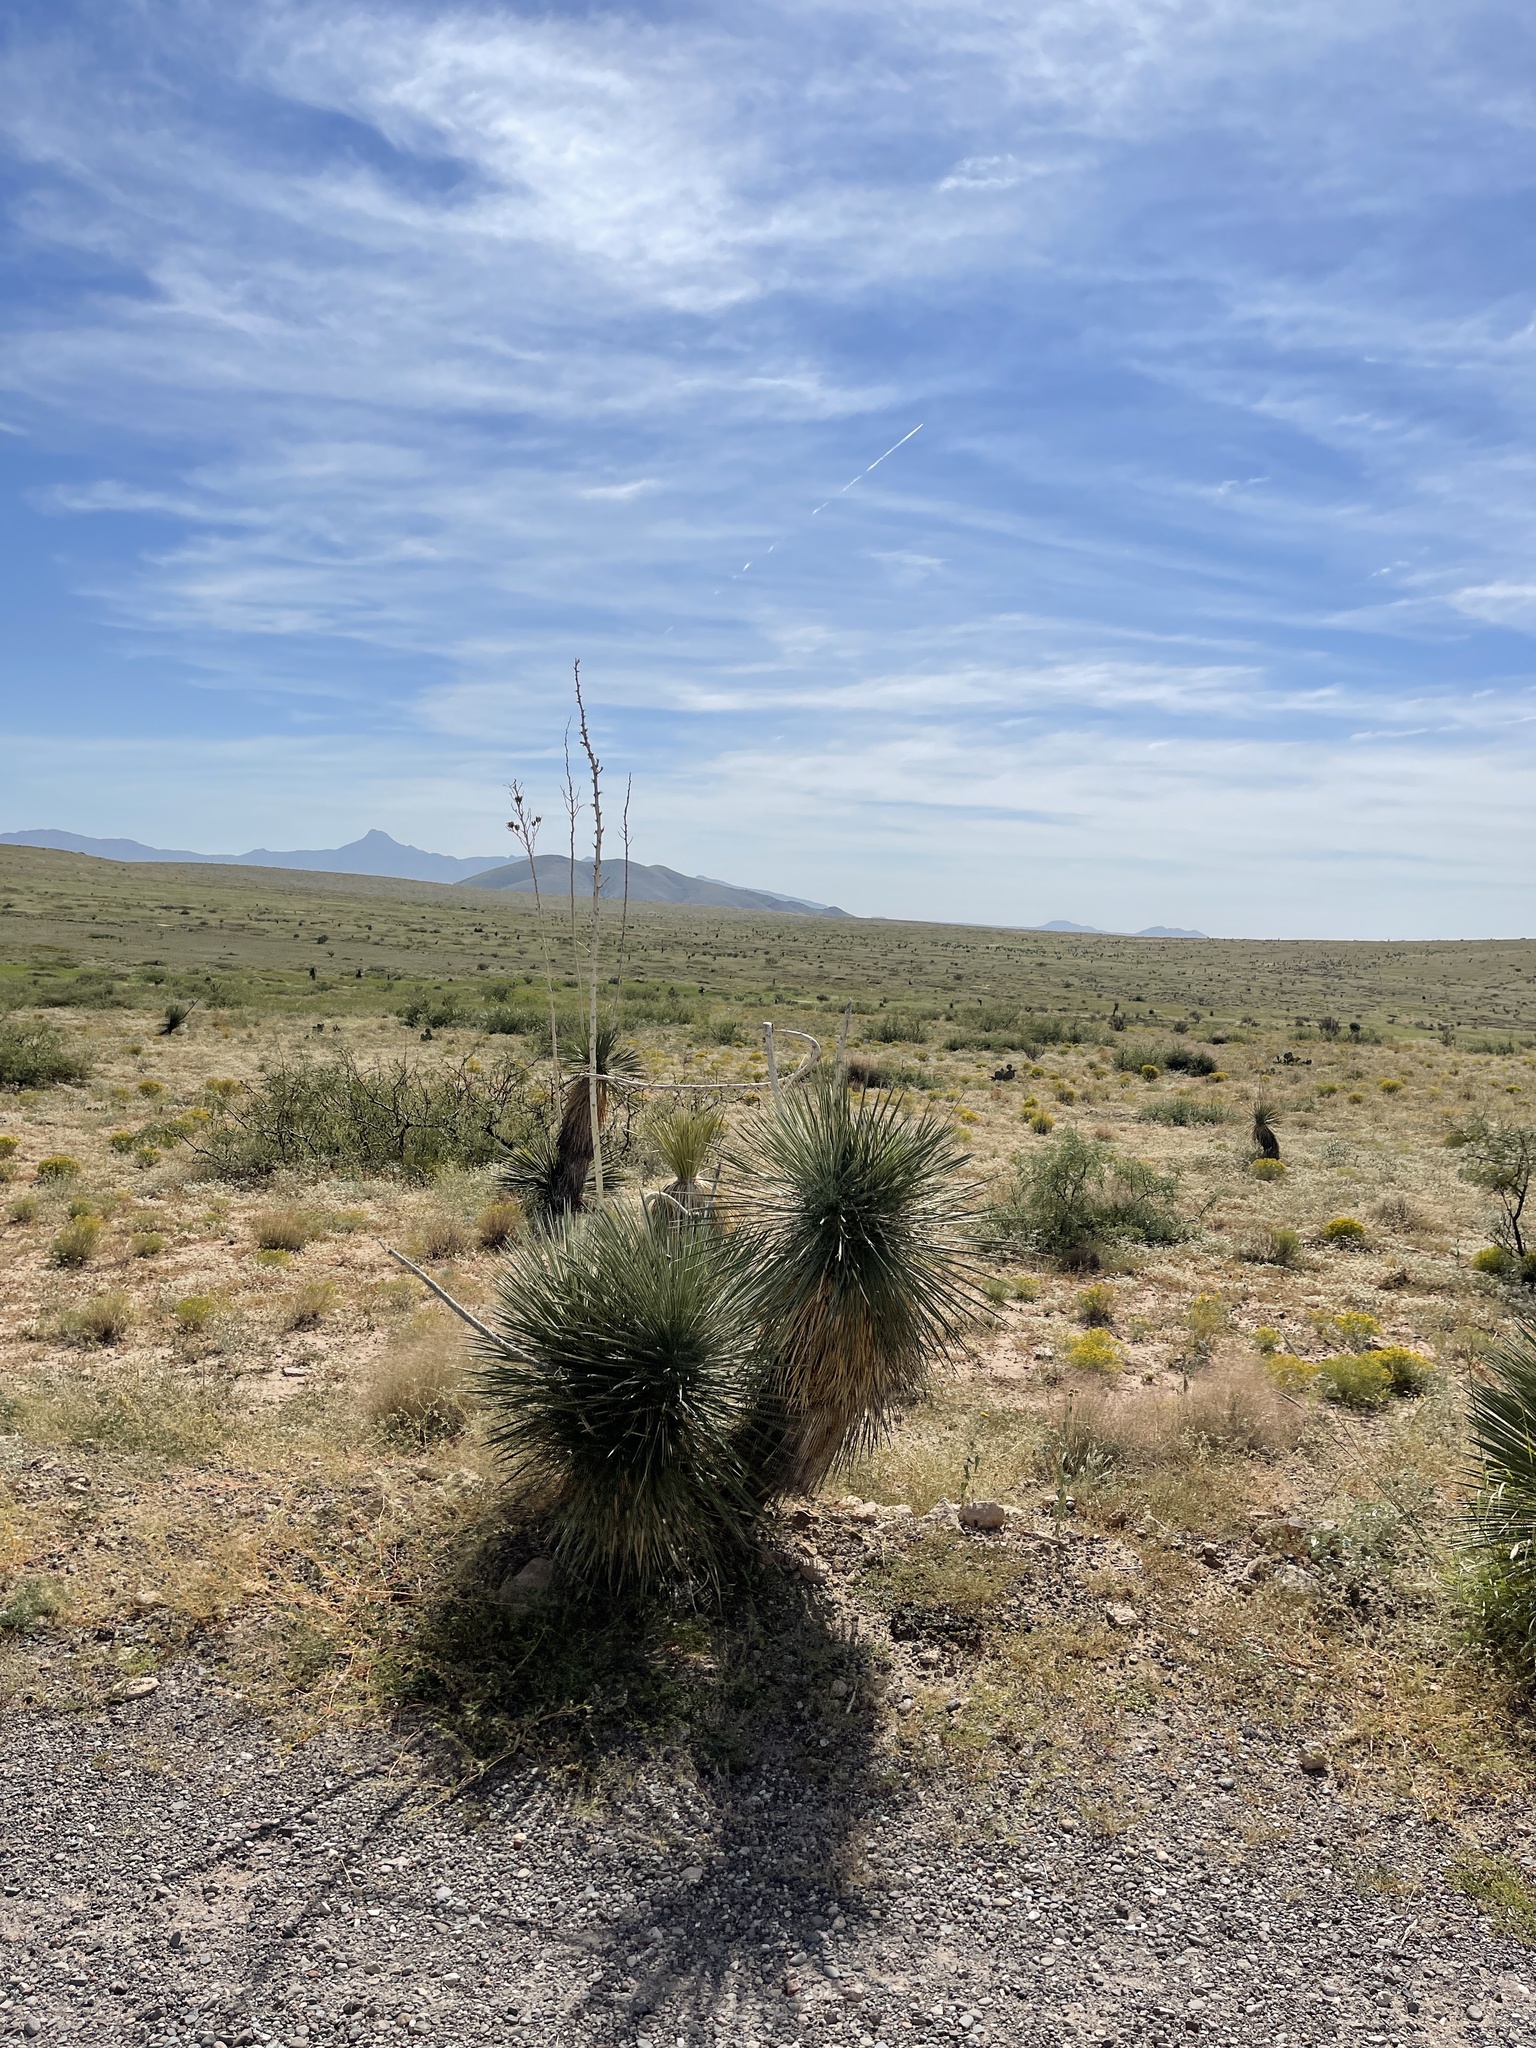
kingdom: Plantae
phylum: Tracheophyta
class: Liliopsida
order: Asparagales
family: Asparagaceae
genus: Yucca
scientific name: Yucca elata
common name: Palmella
